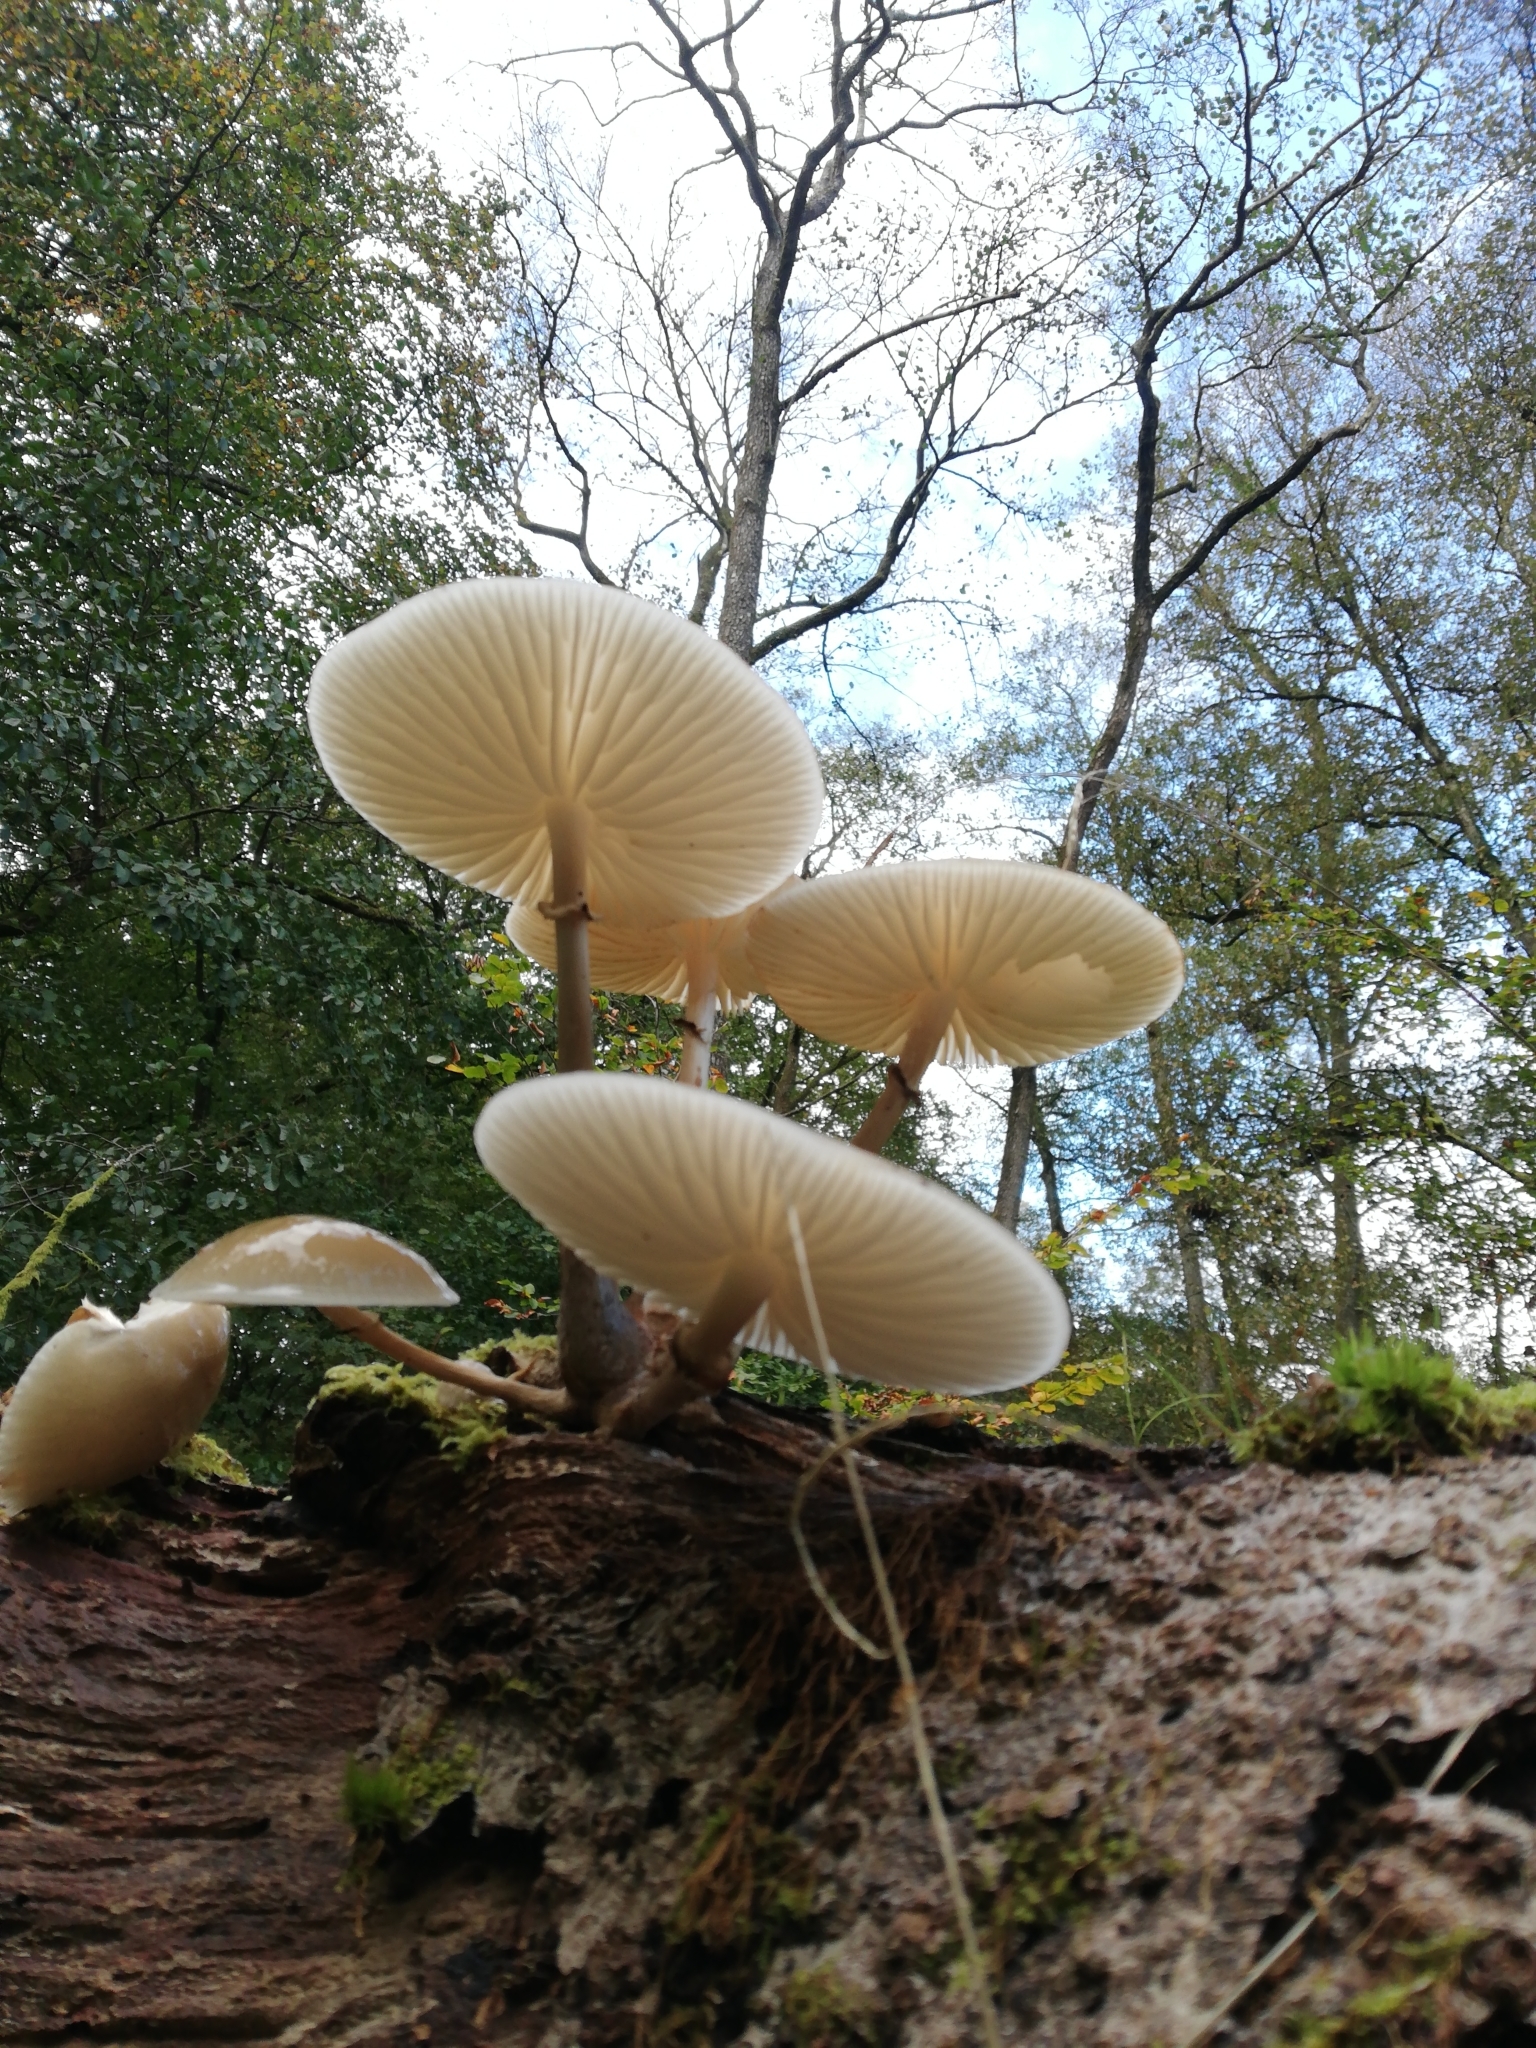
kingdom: Fungi
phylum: Basidiomycota
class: Agaricomycetes
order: Agaricales
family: Physalacriaceae
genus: Mucidula
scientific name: Mucidula mucida
